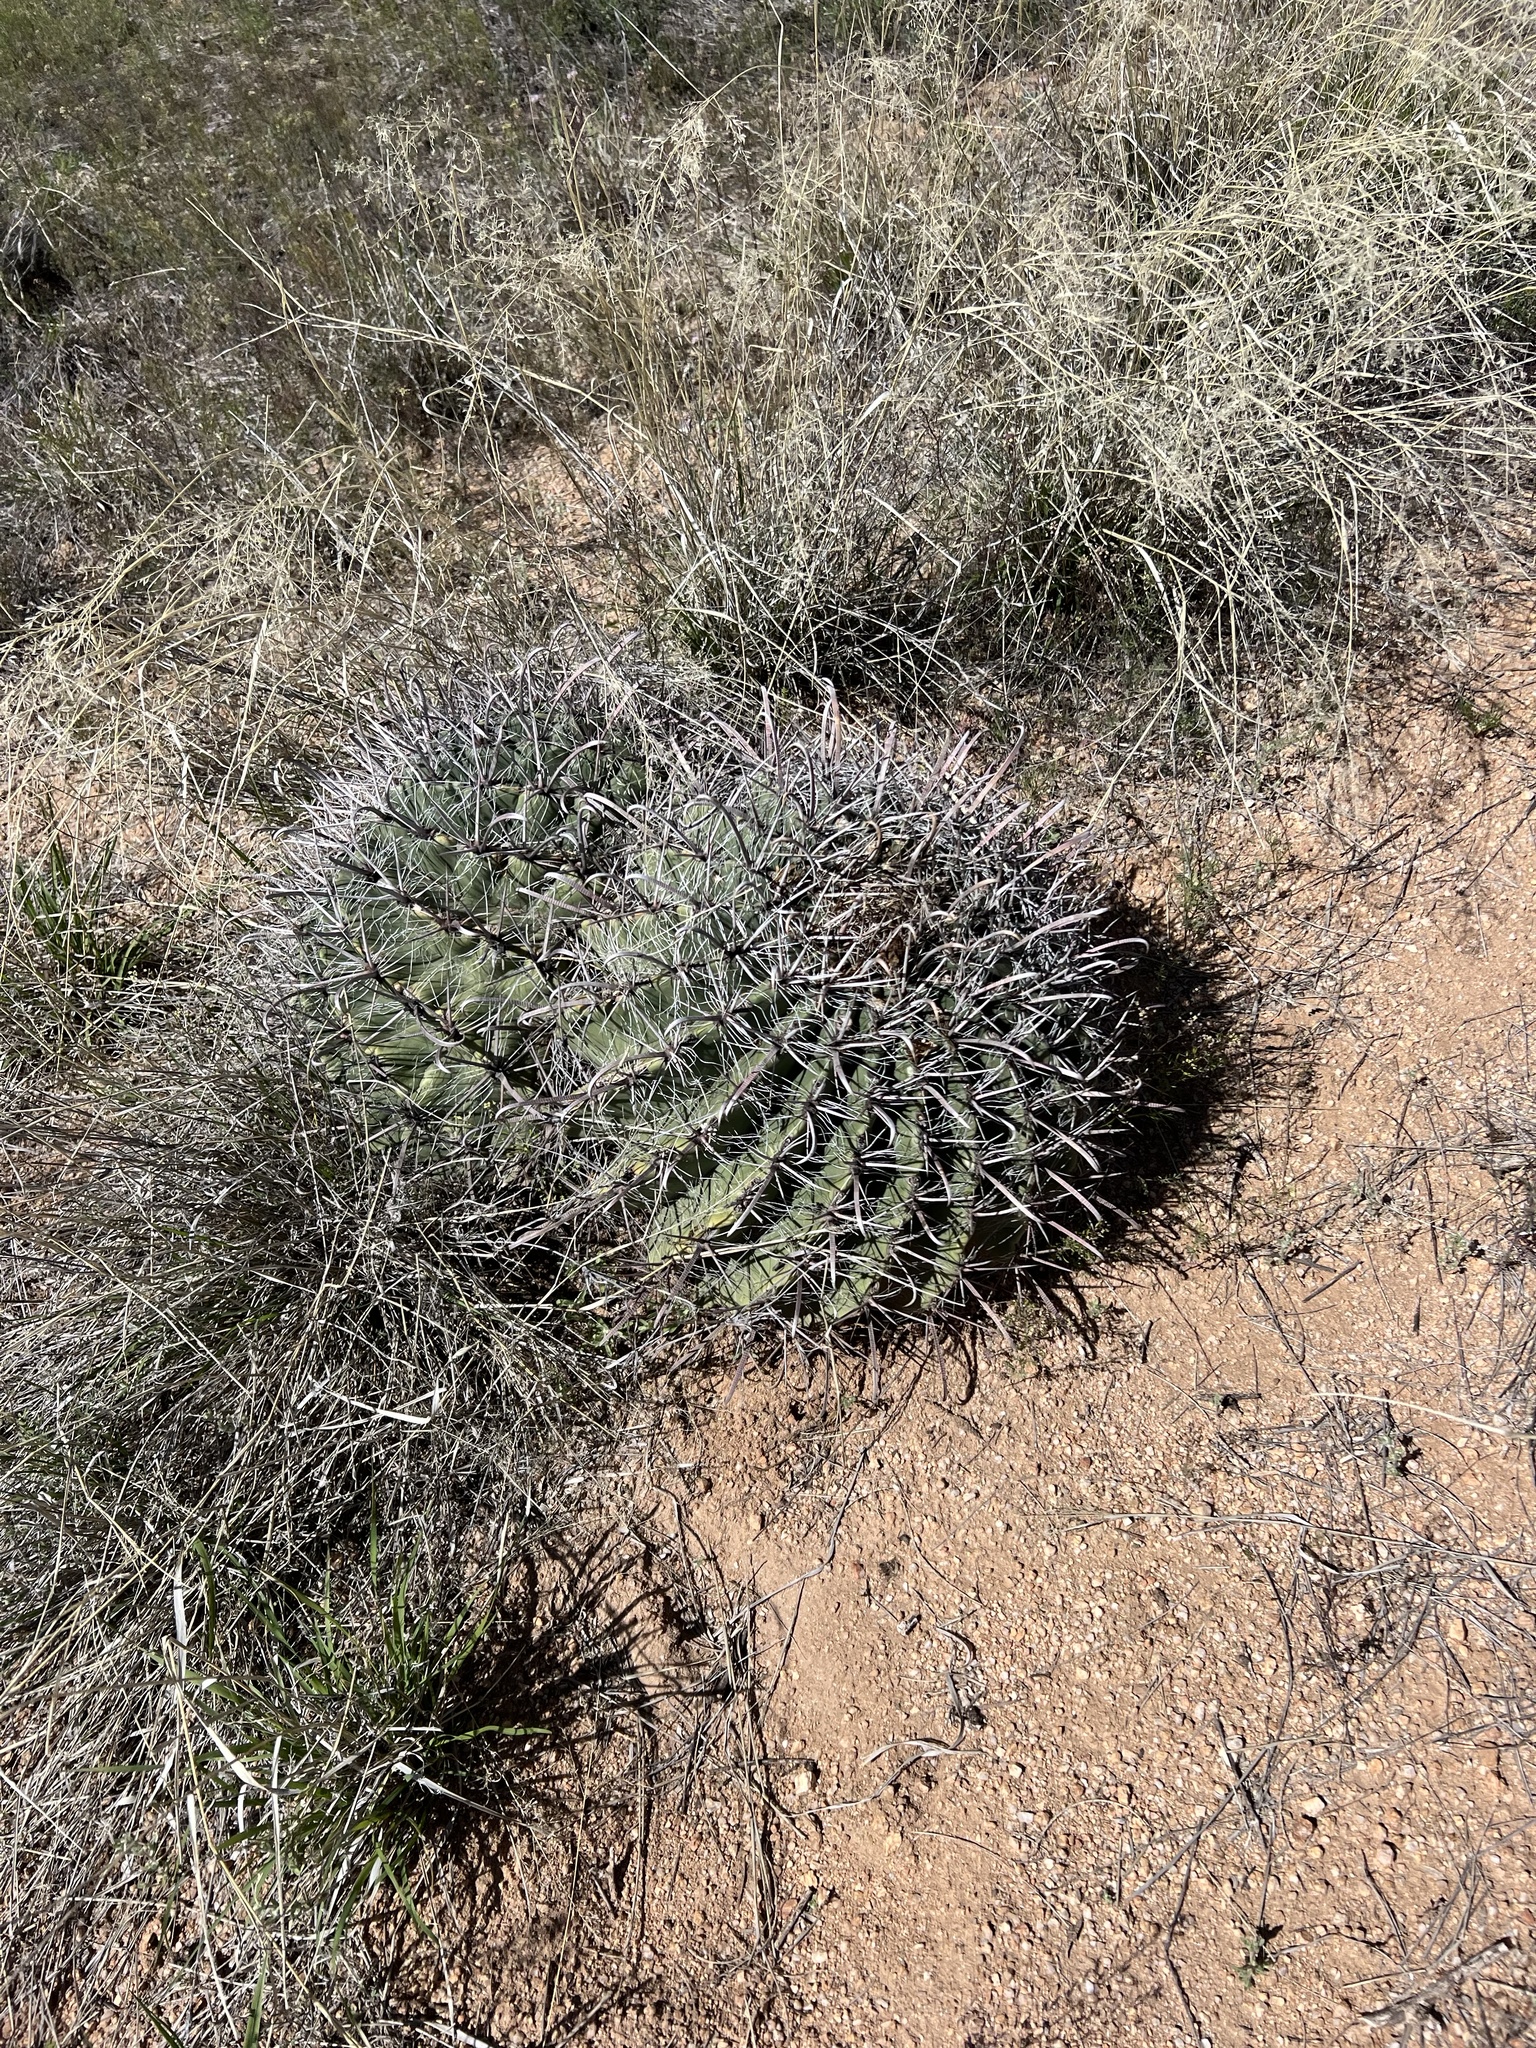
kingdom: Plantae
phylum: Tracheophyta
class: Magnoliopsida
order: Caryophyllales
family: Cactaceae
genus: Ferocactus
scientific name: Ferocactus wislizeni
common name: Candy barrel cactus
